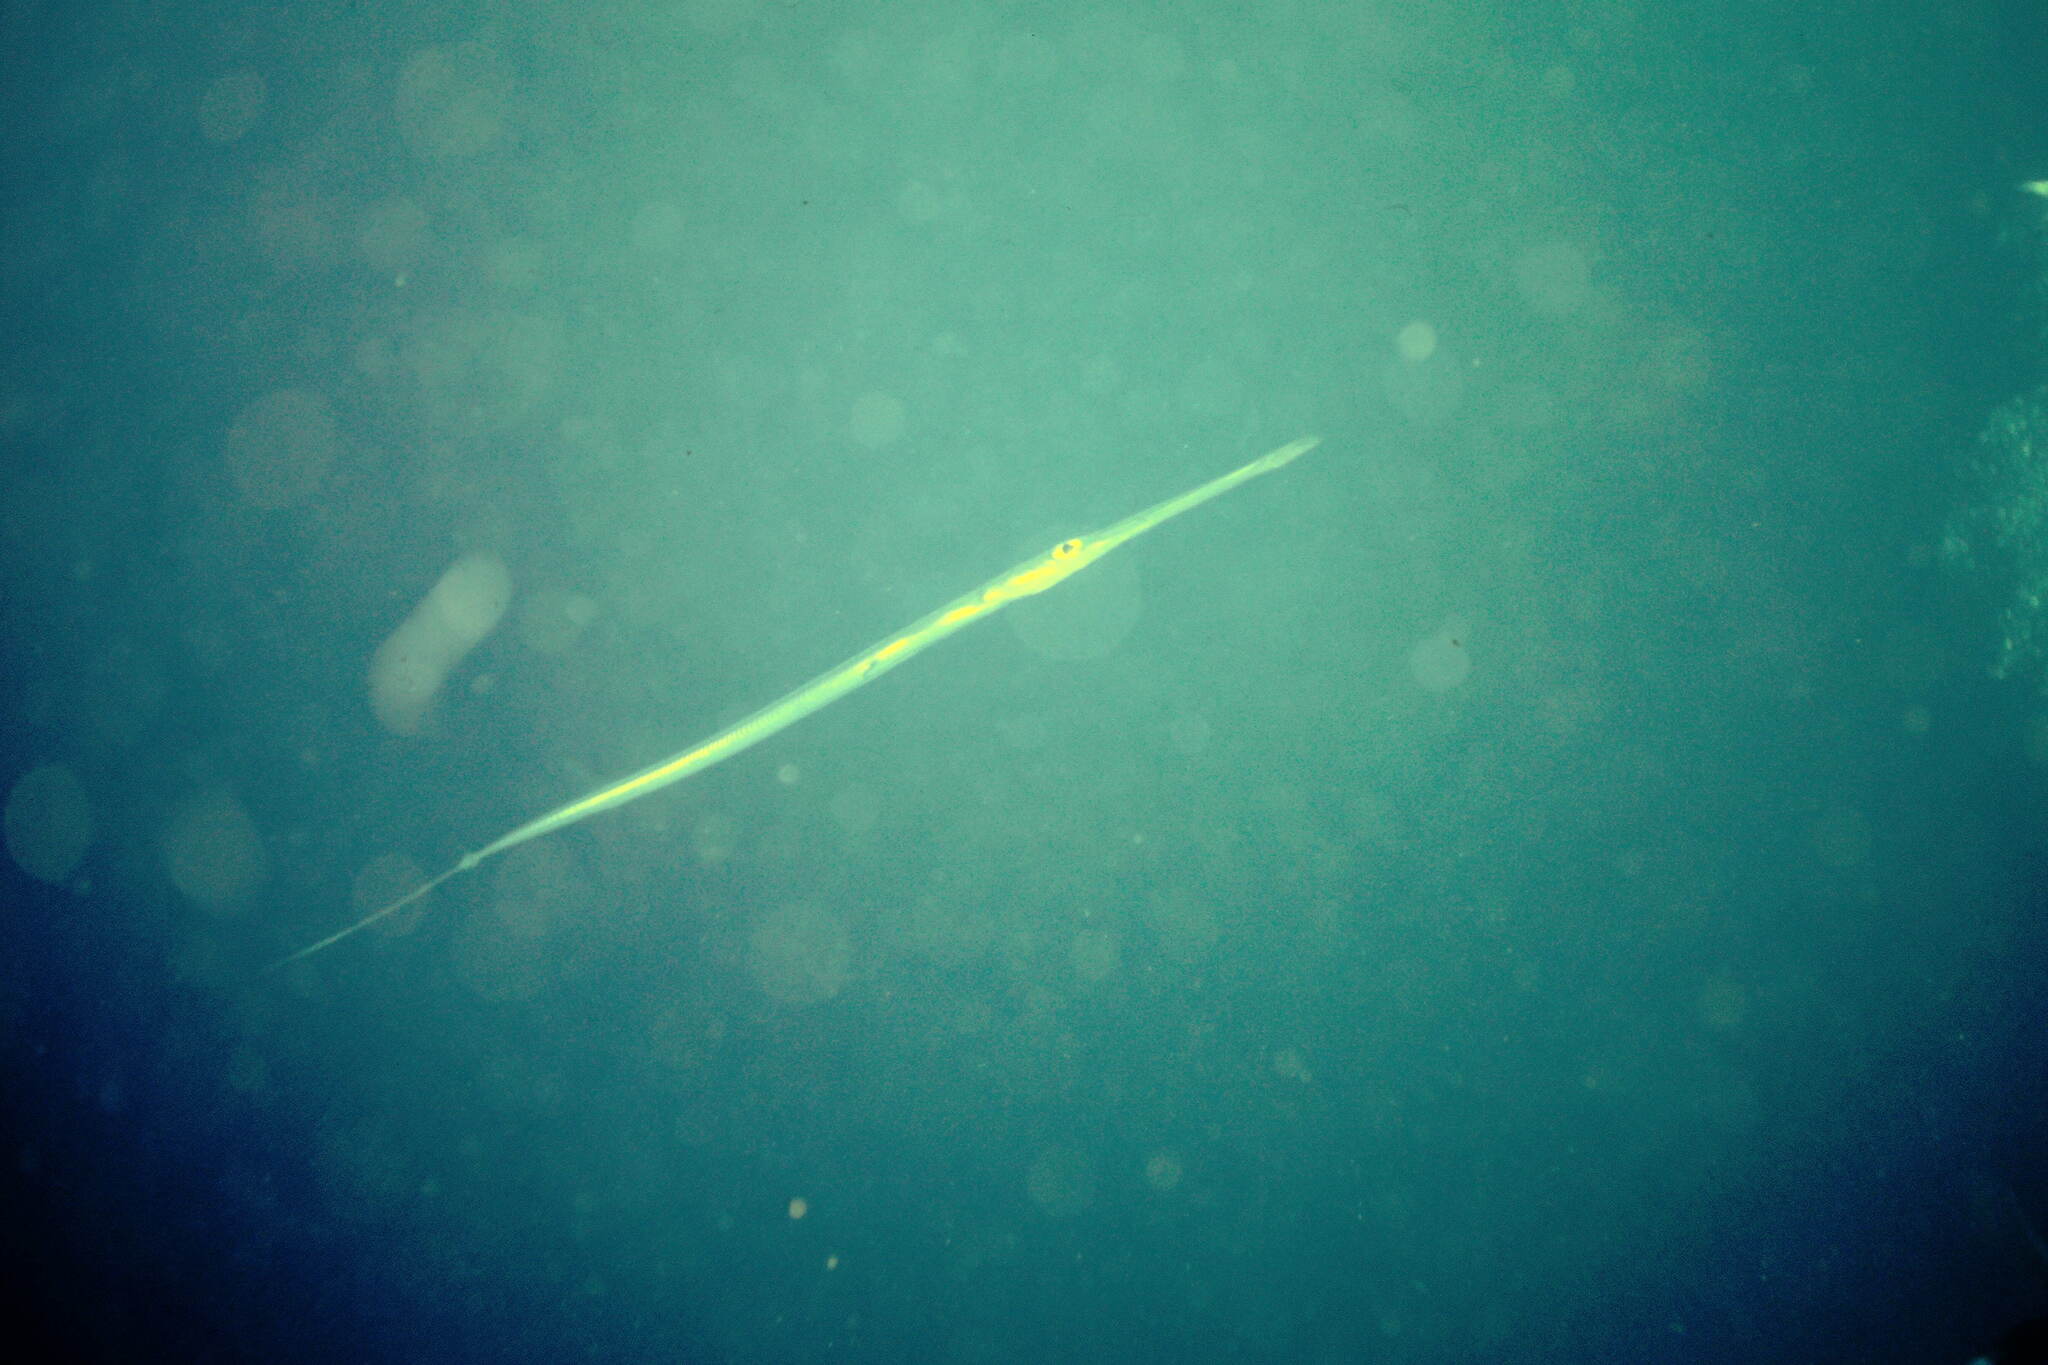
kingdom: Animalia
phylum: Chordata
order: Syngnathiformes
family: Fistulariidae
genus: Fistularia
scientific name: Fistularia commersonii
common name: Bluespotted cornetfish
